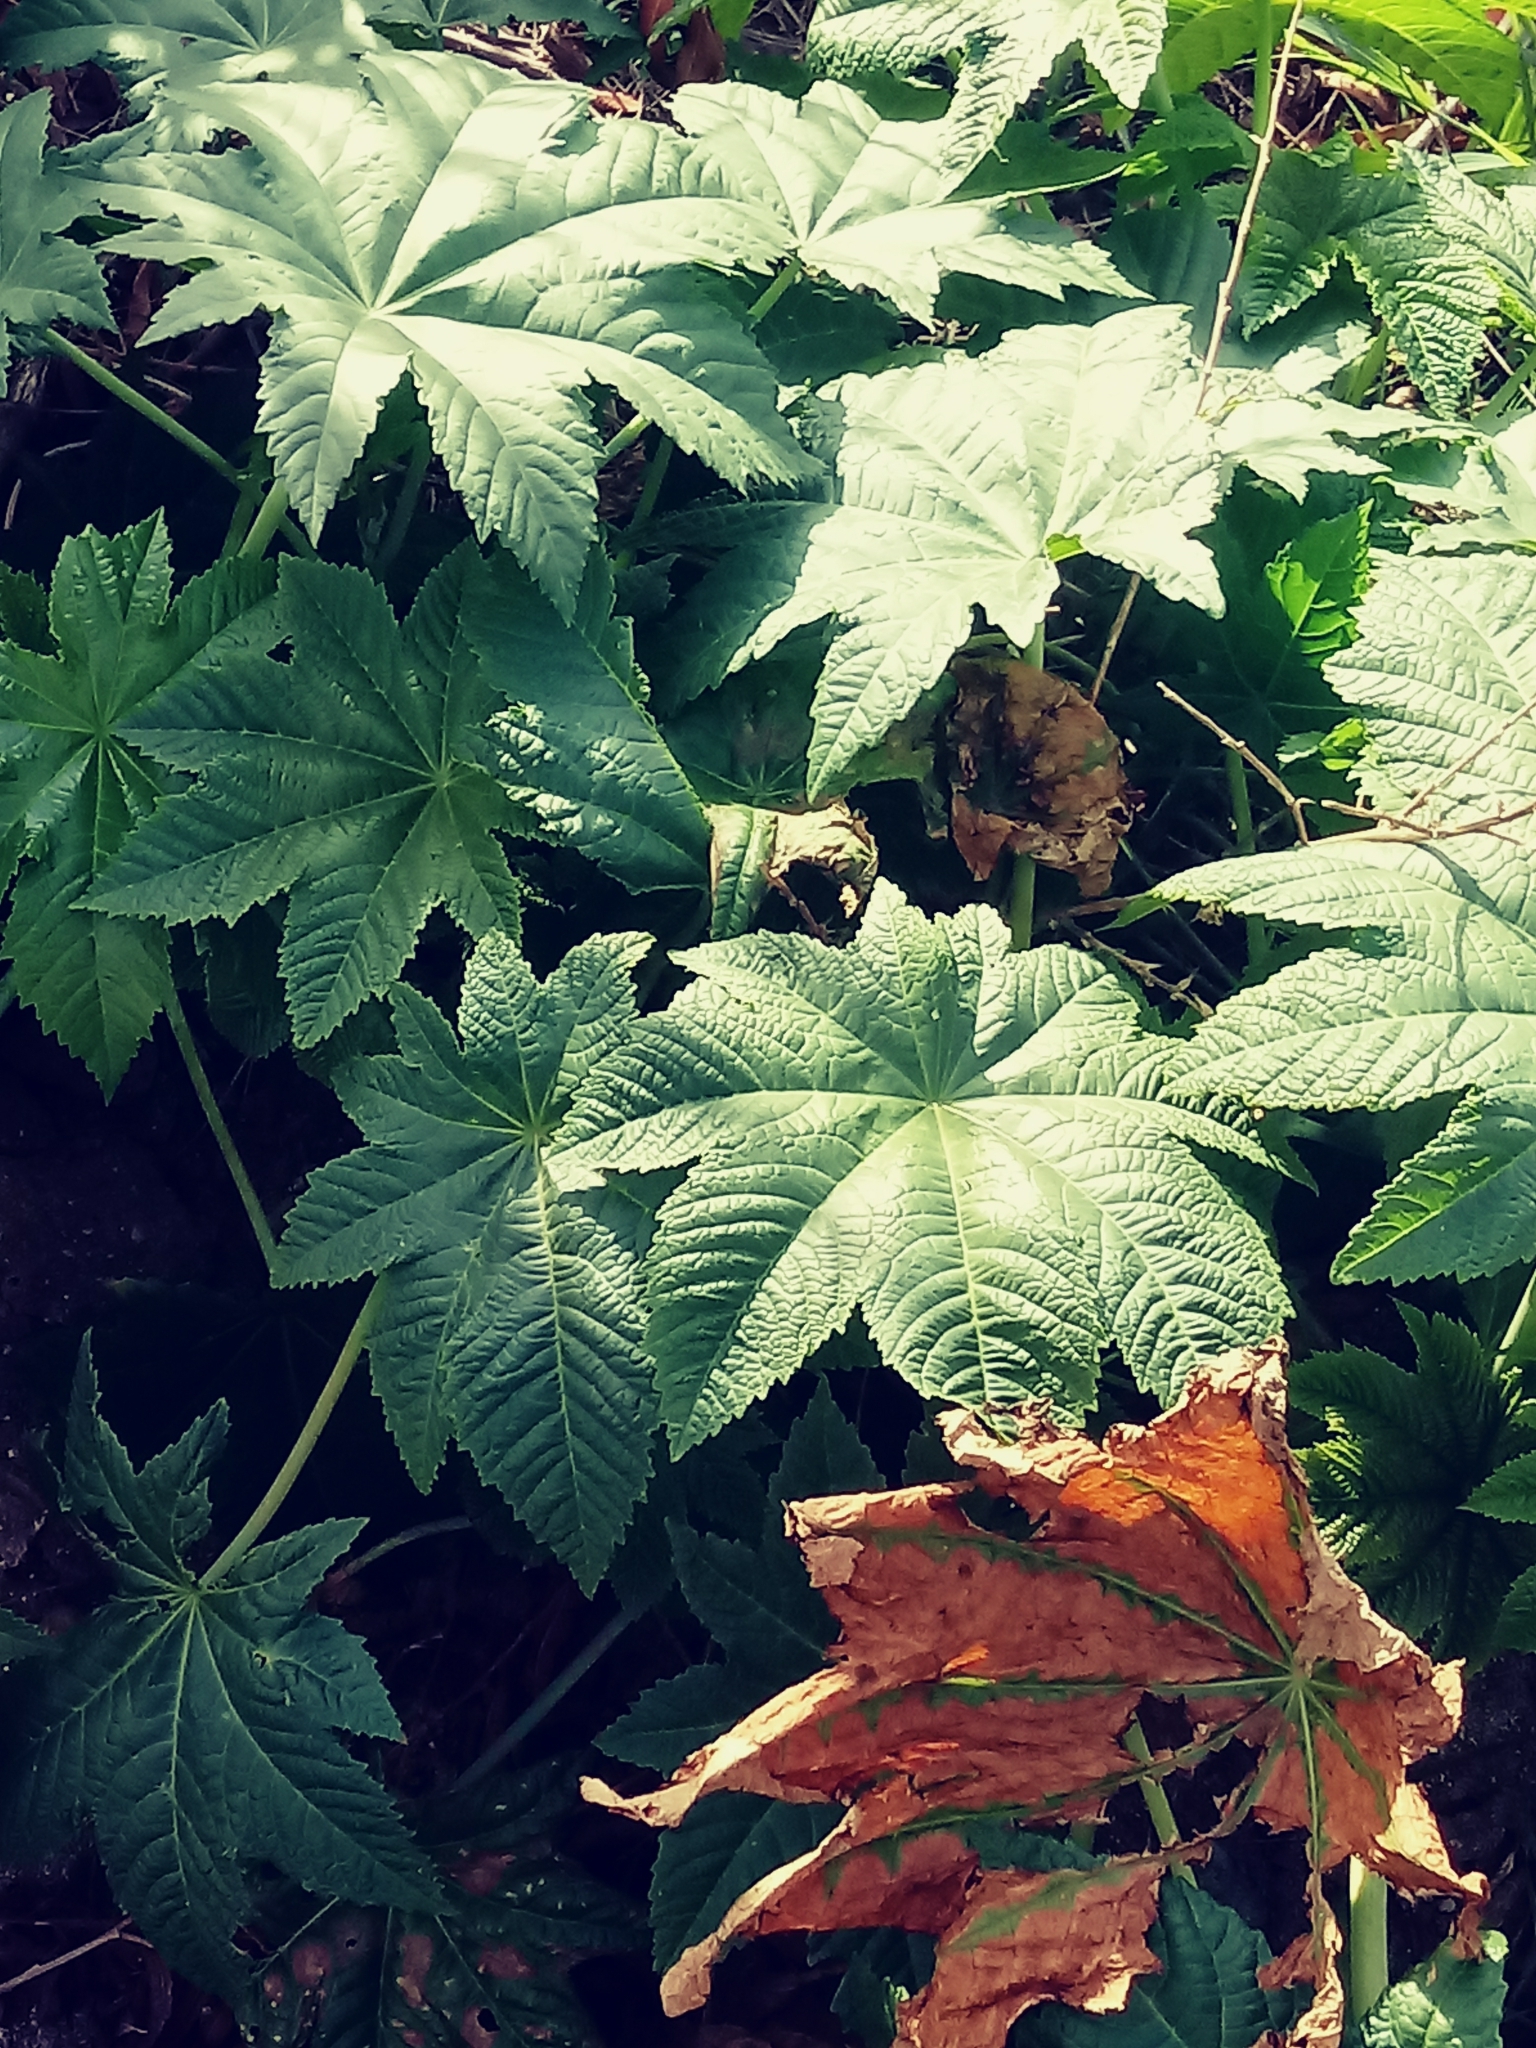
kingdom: Plantae
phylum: Tracheophyta
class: Magnoliopsida
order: Malpighiales
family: Euphorbiaceae
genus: Ricinus
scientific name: Ricinus communis
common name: Castor-oil-plant
